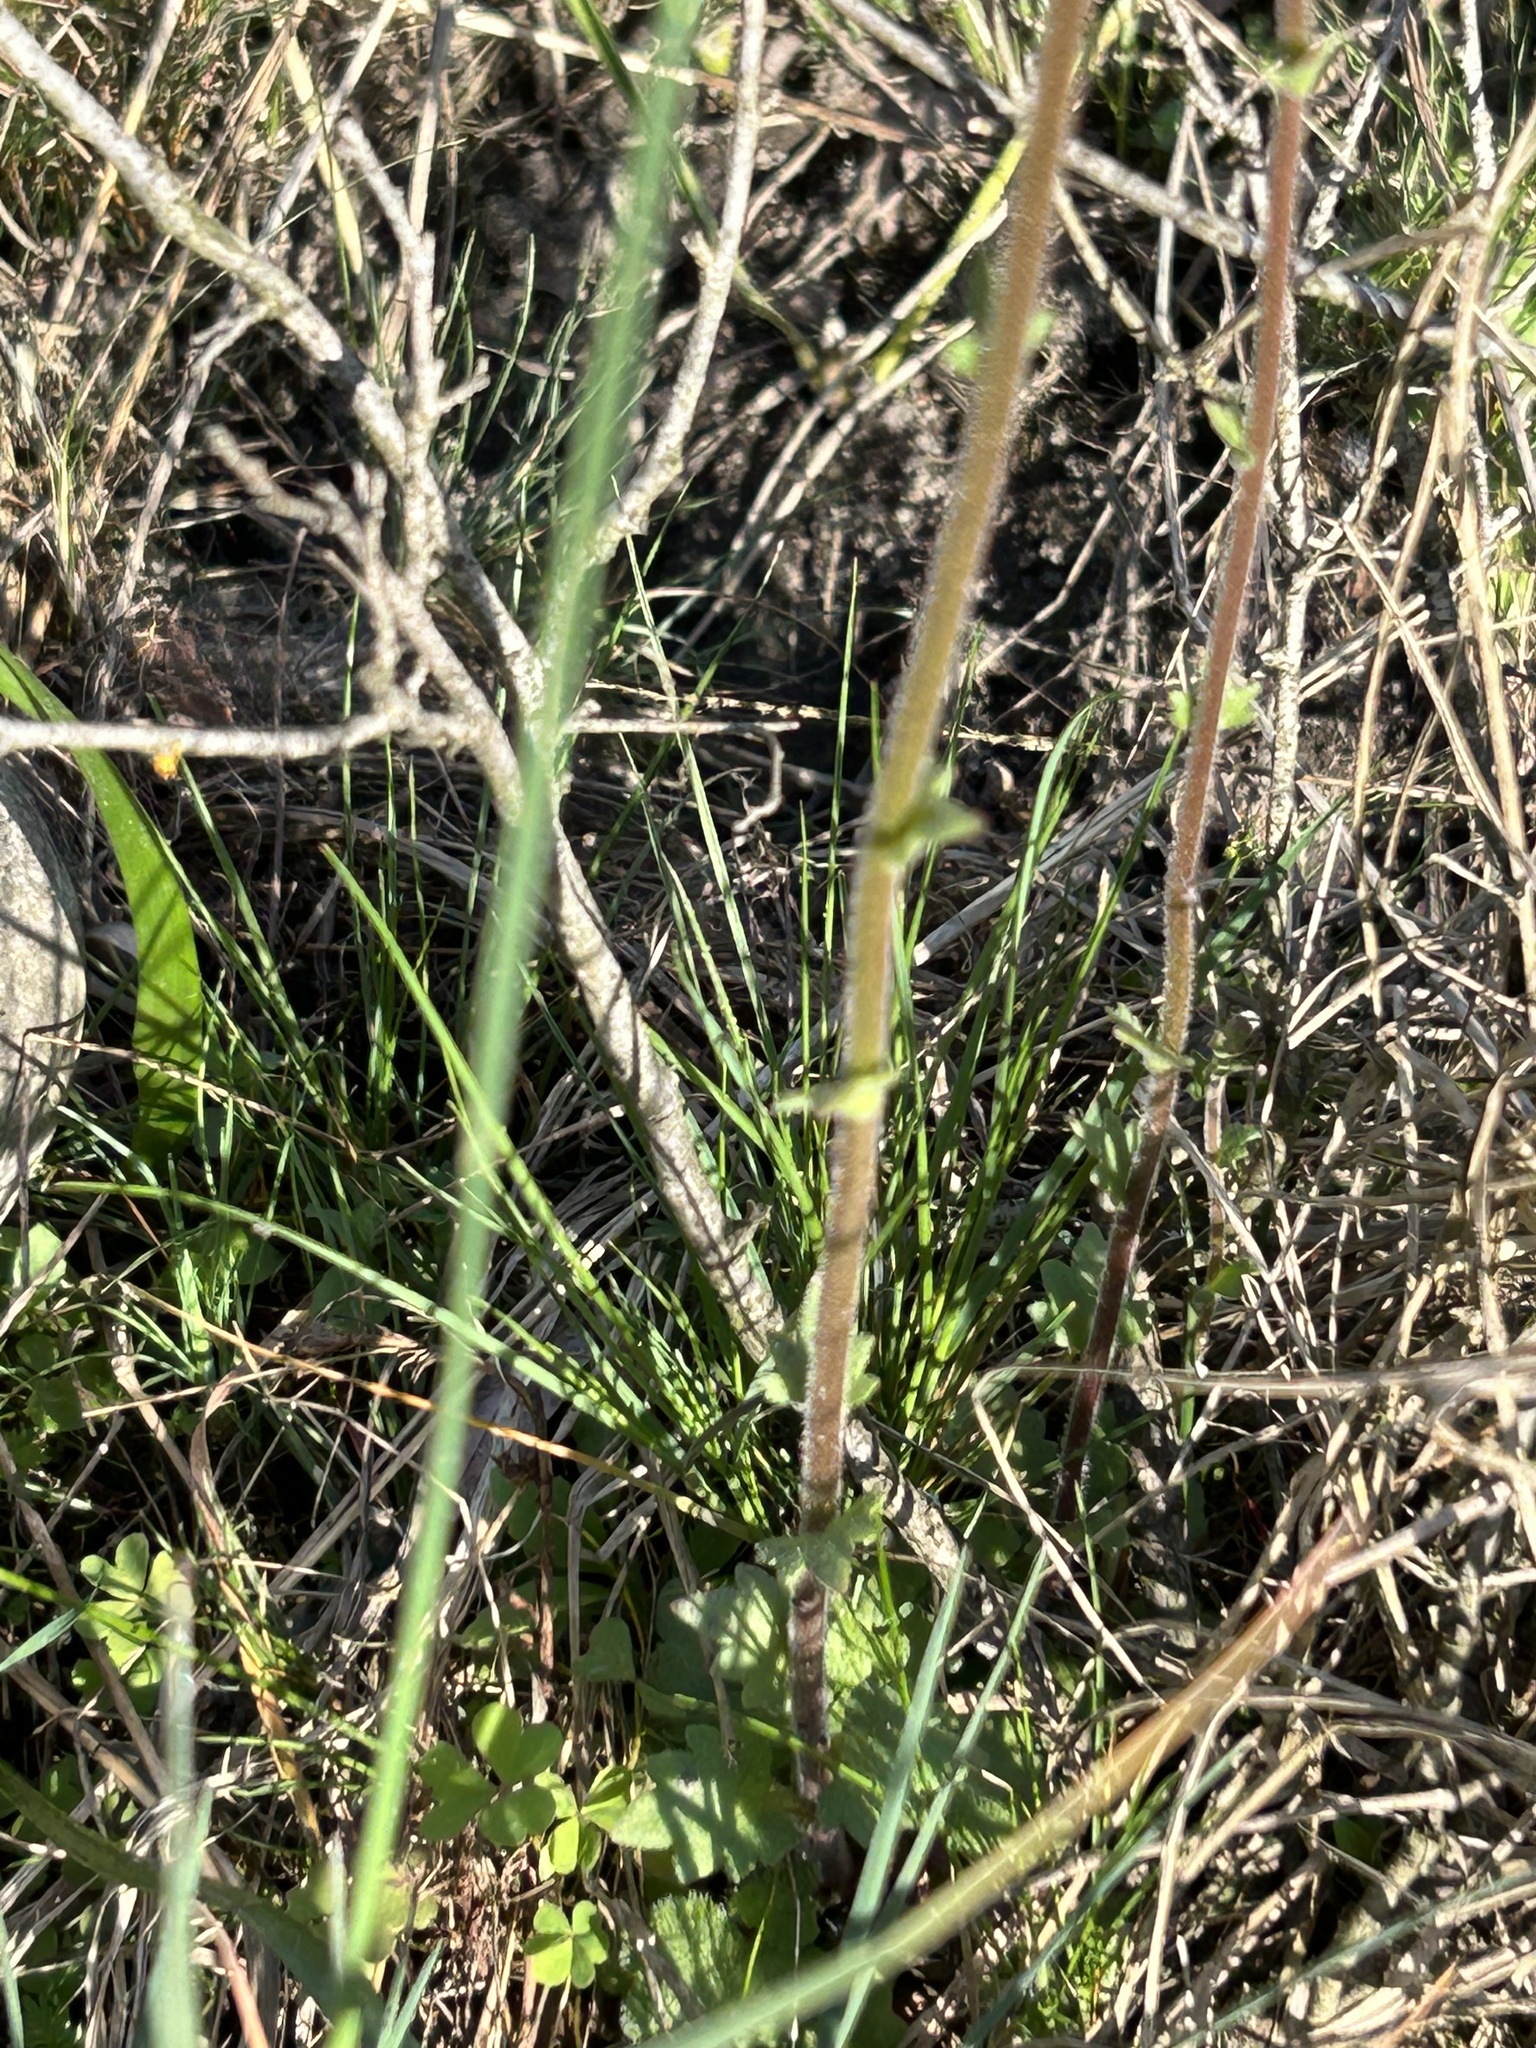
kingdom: Plantae
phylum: Tracheophyta
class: Magnoliopsida
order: Saxifragales
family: Saxifragaceae
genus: Saxifraga
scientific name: Saxifraga bulbifera
